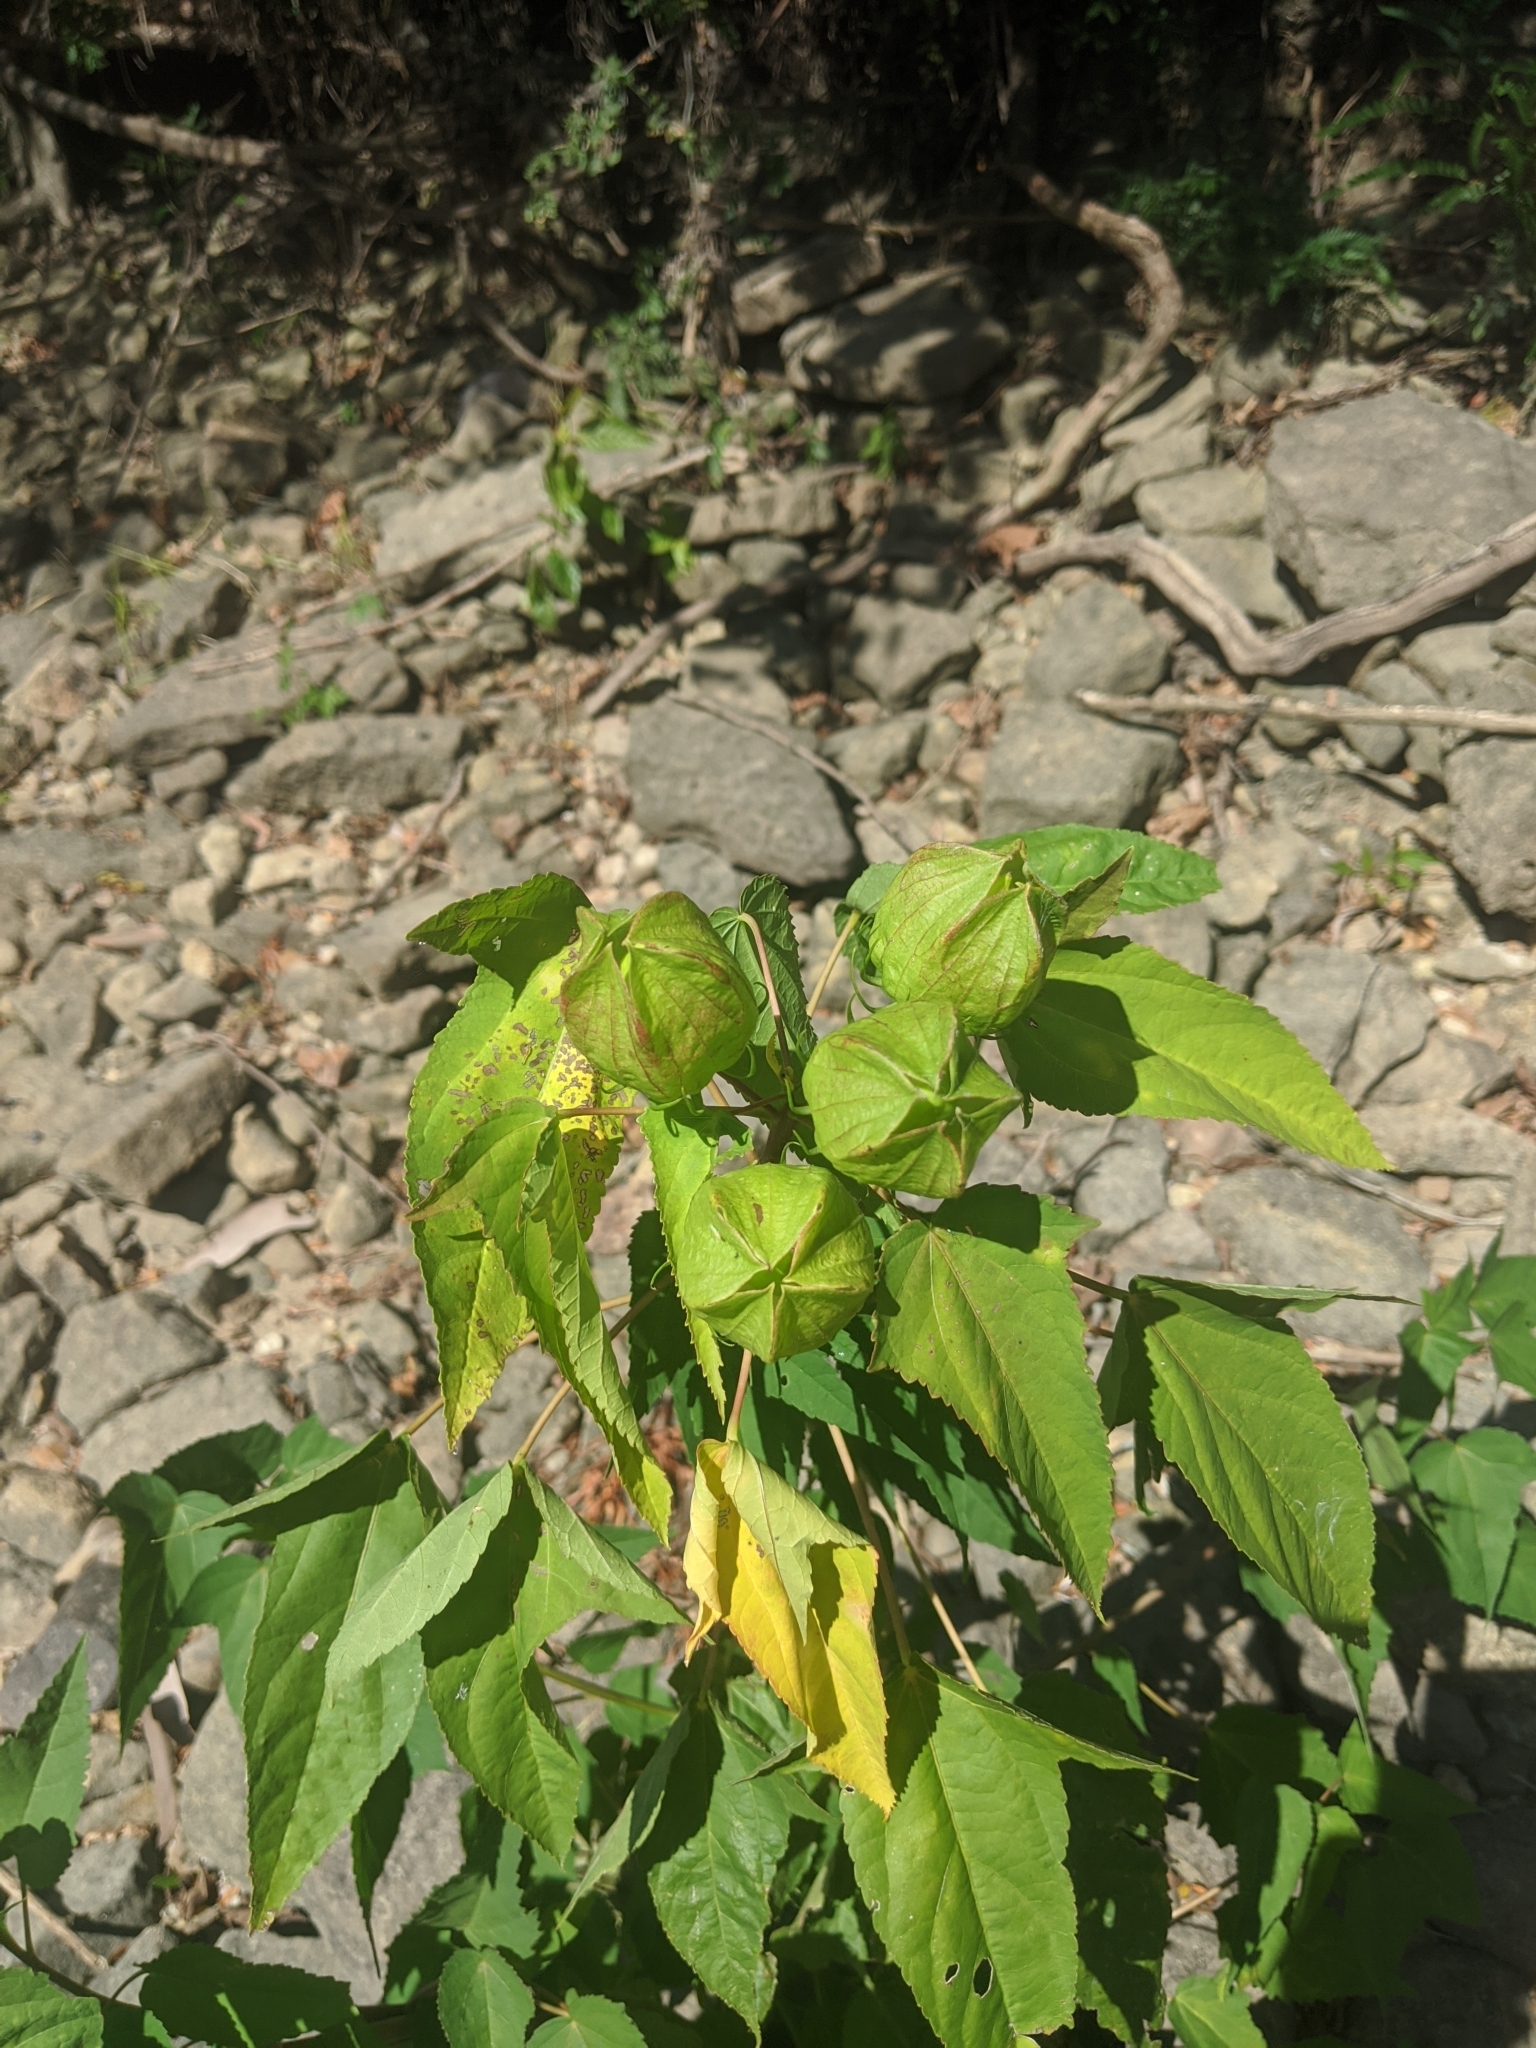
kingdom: Plantae
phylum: Tracheophyta
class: Magnoliopsida
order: Malvales
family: Malvaceae
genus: Hibiscus
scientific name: Hibiscus laevis
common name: Scarlet rose-mallow
